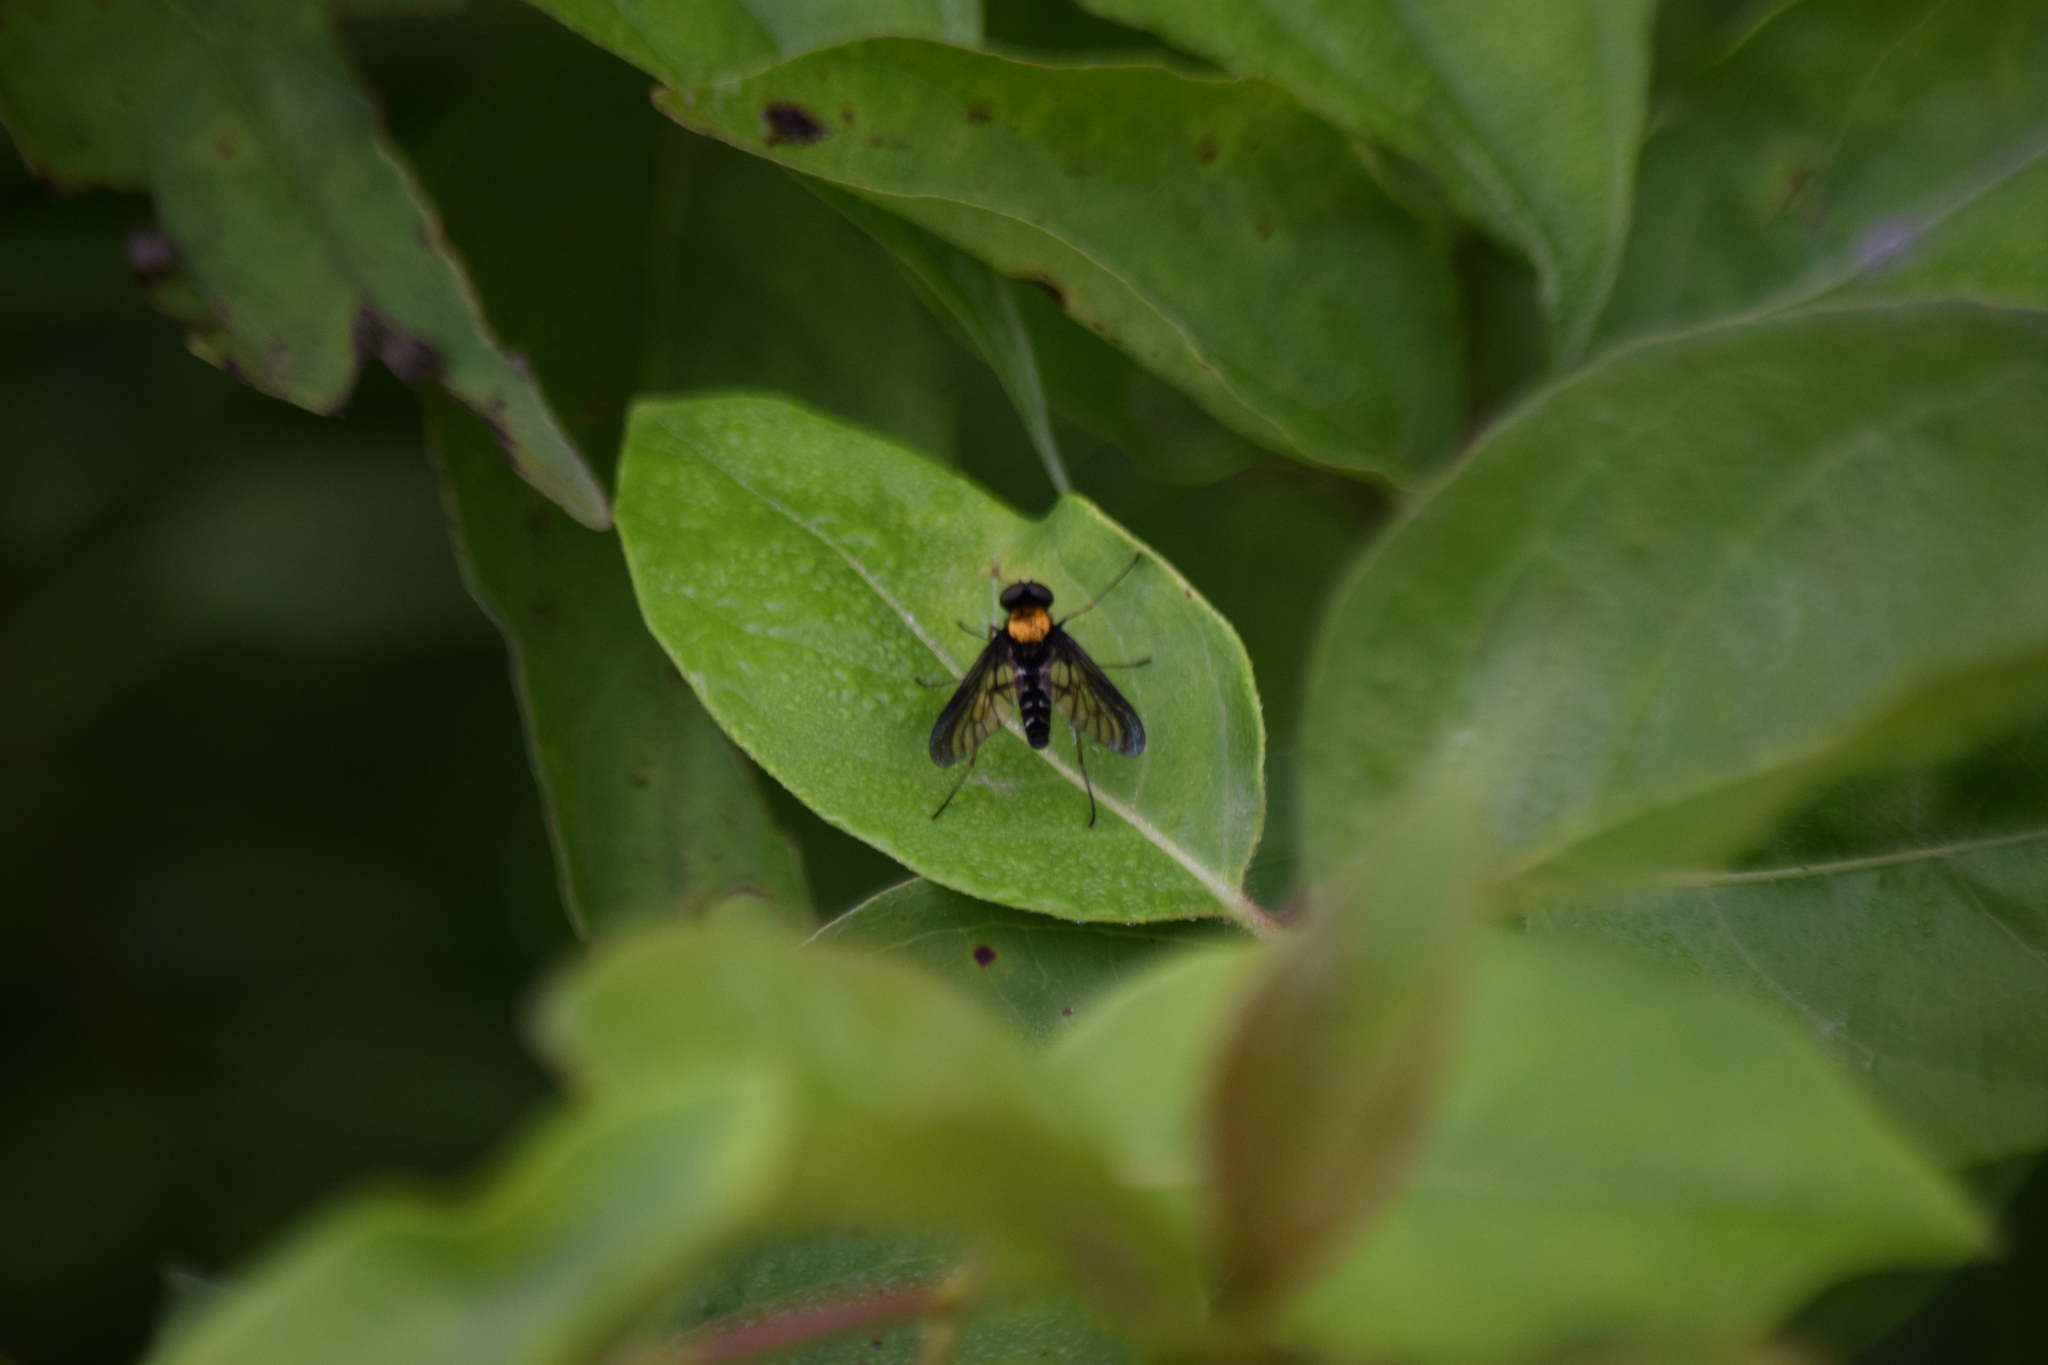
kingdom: Animalia
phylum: Arthropoda
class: Insecta
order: Diptera
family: Rhagionidae
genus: Chrysopilus
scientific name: Chrysopilus thoracicus
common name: Golden-backed snipe fly
